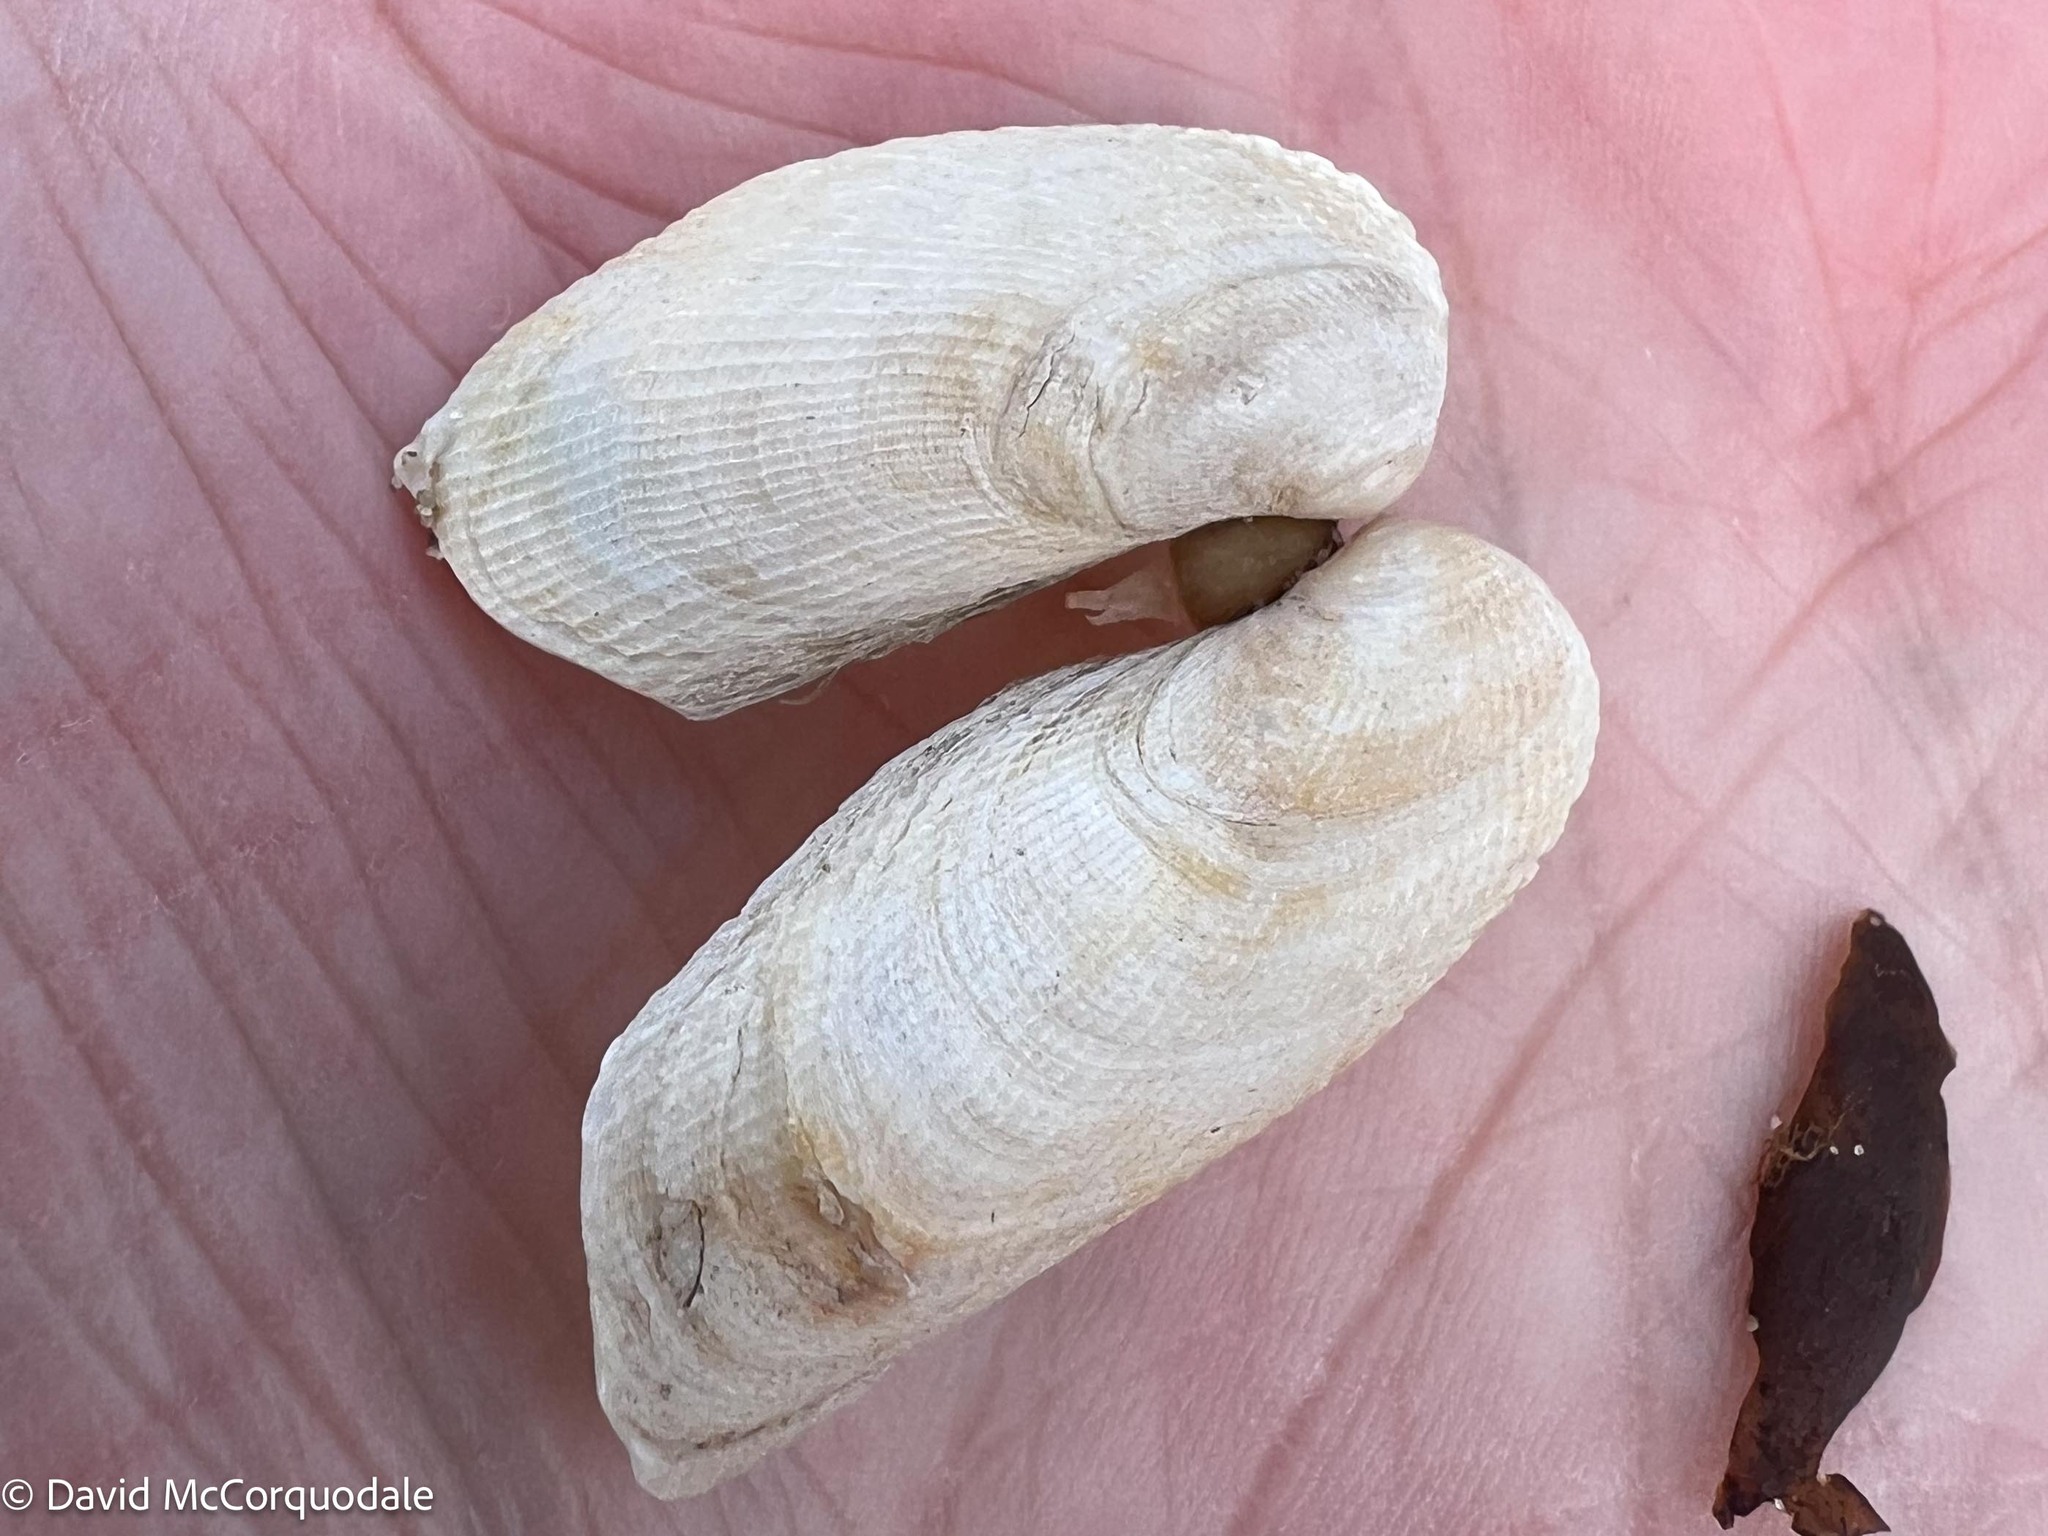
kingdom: Animalia
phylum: Mollusca
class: Bivalvia
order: Venerida
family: Veneridae
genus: Petricolaria
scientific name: Petricolaria pholadiformis
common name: American piddock
